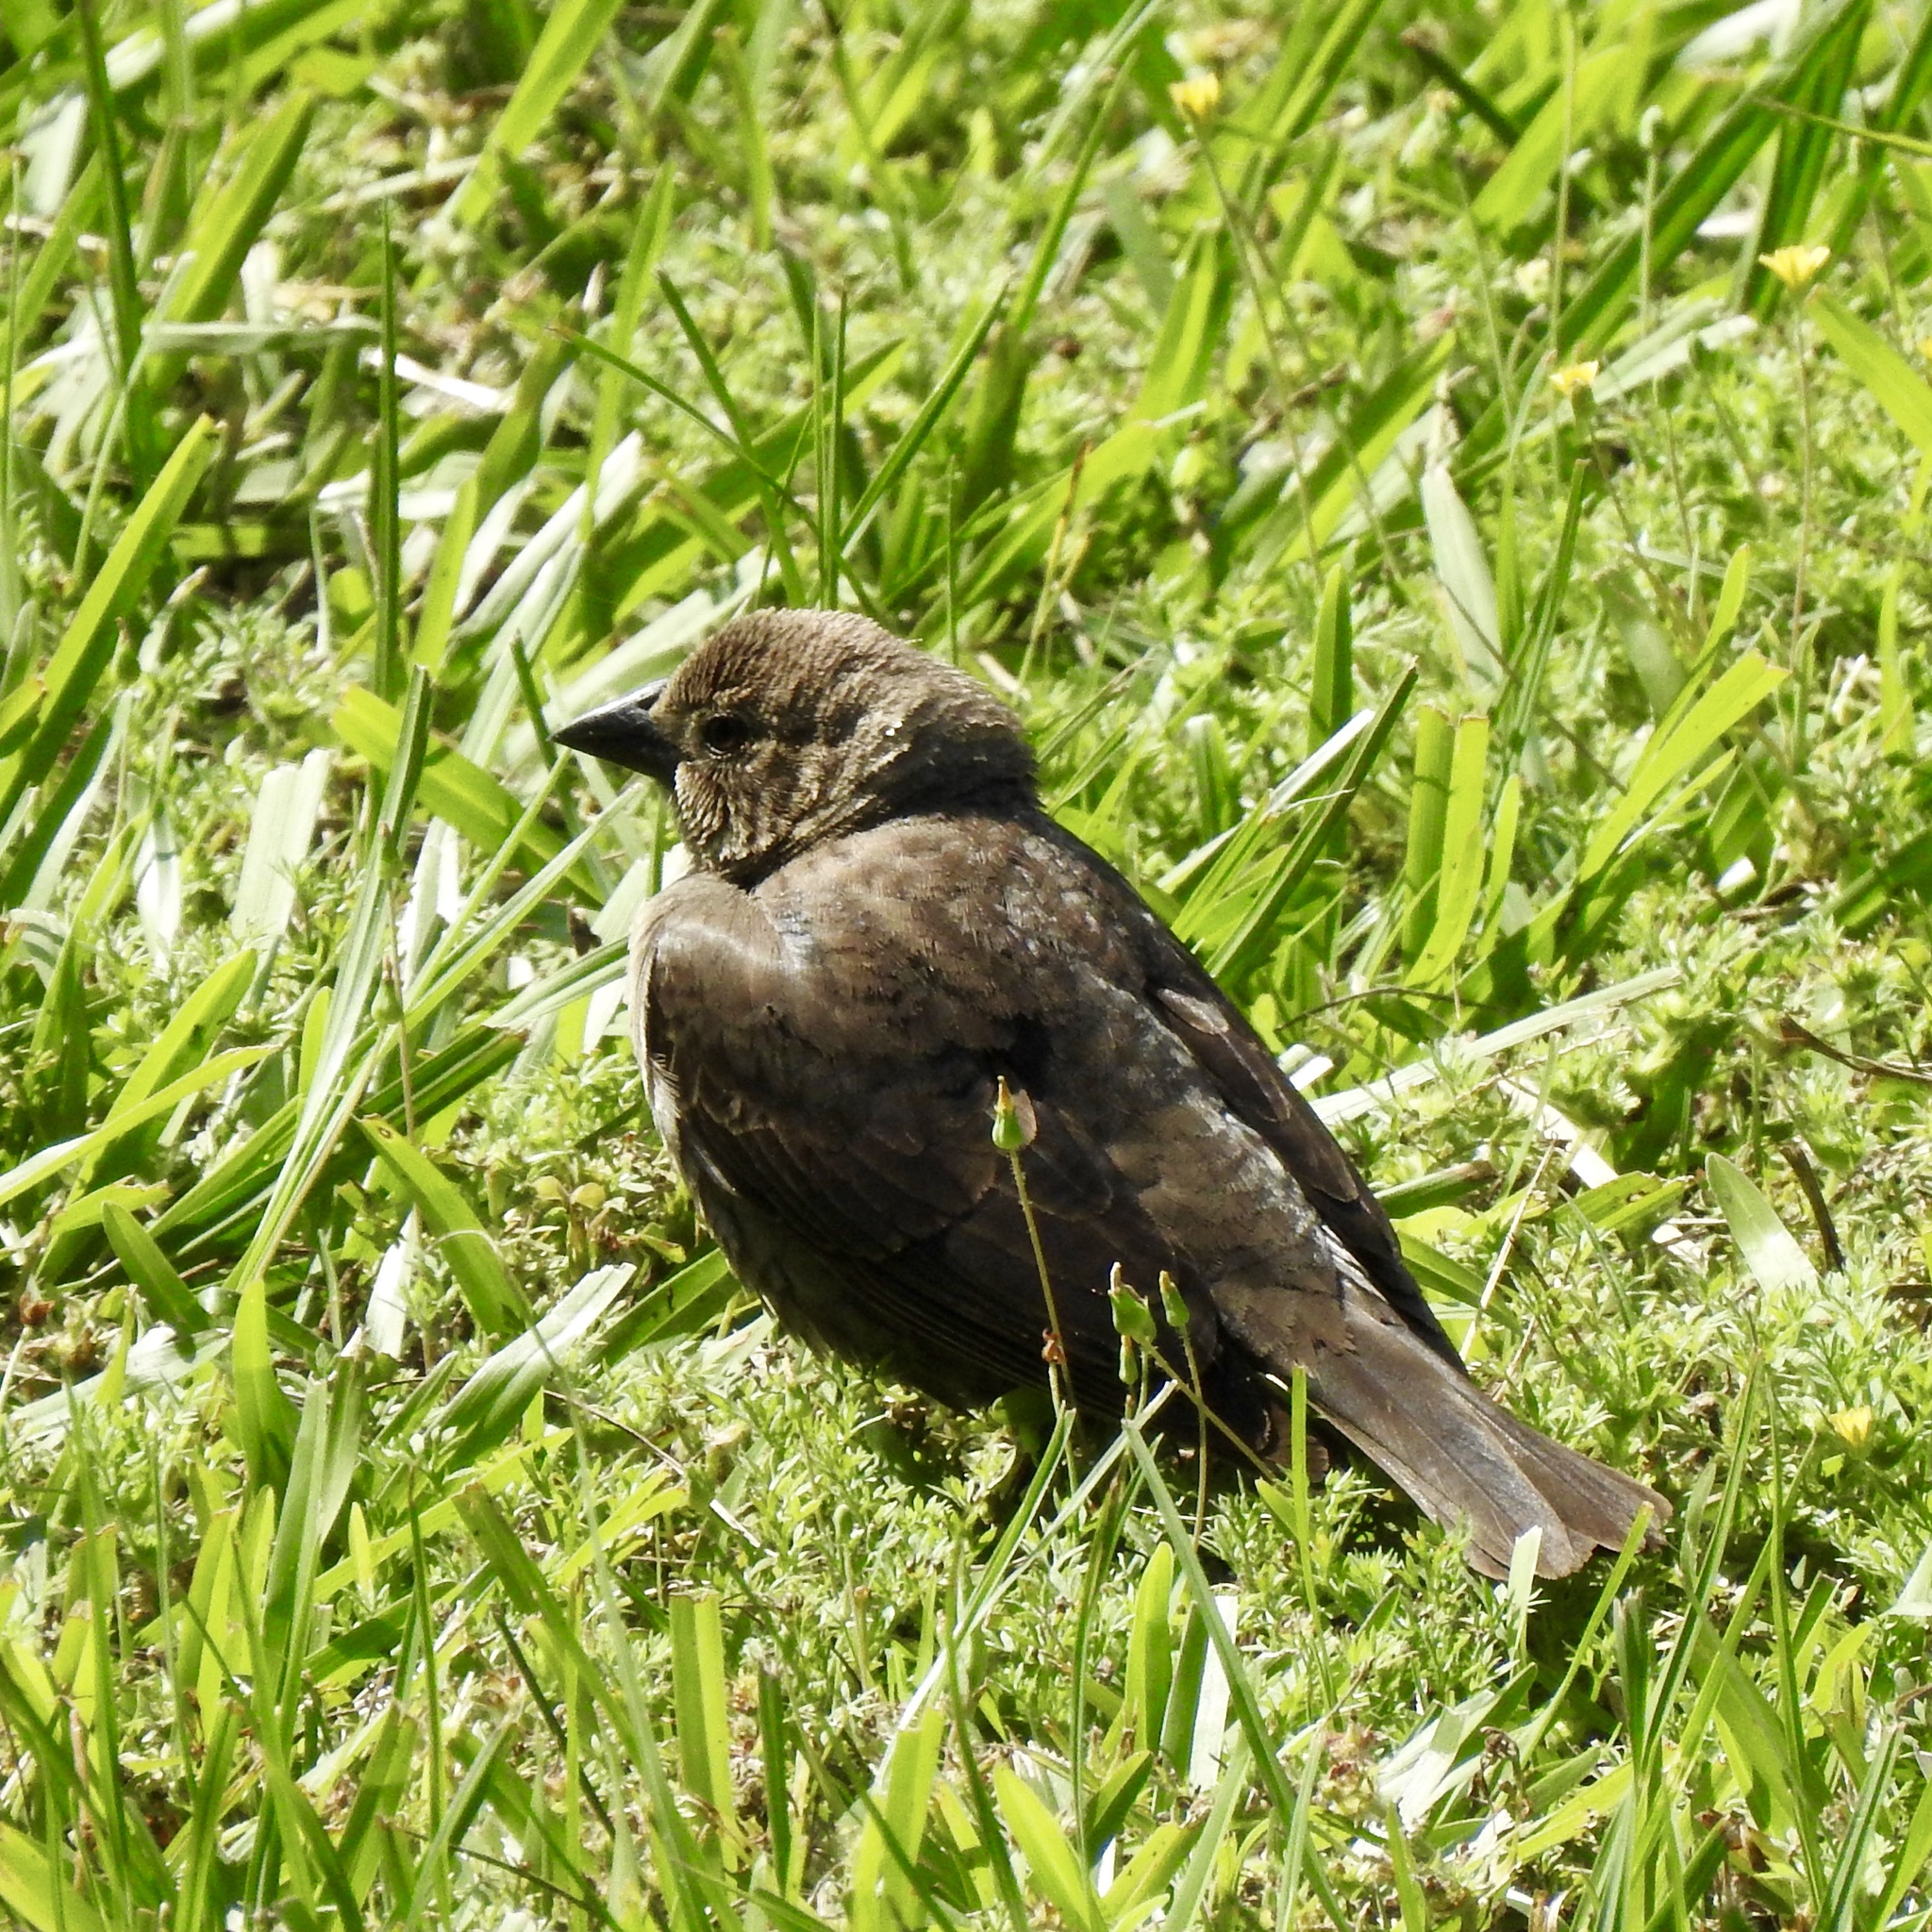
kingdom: Animalia
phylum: Chordata
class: Aves
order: Passeriformes
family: Icteridae
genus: Molothrus
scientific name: Molothrus ater
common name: Brown-headed cowbird
